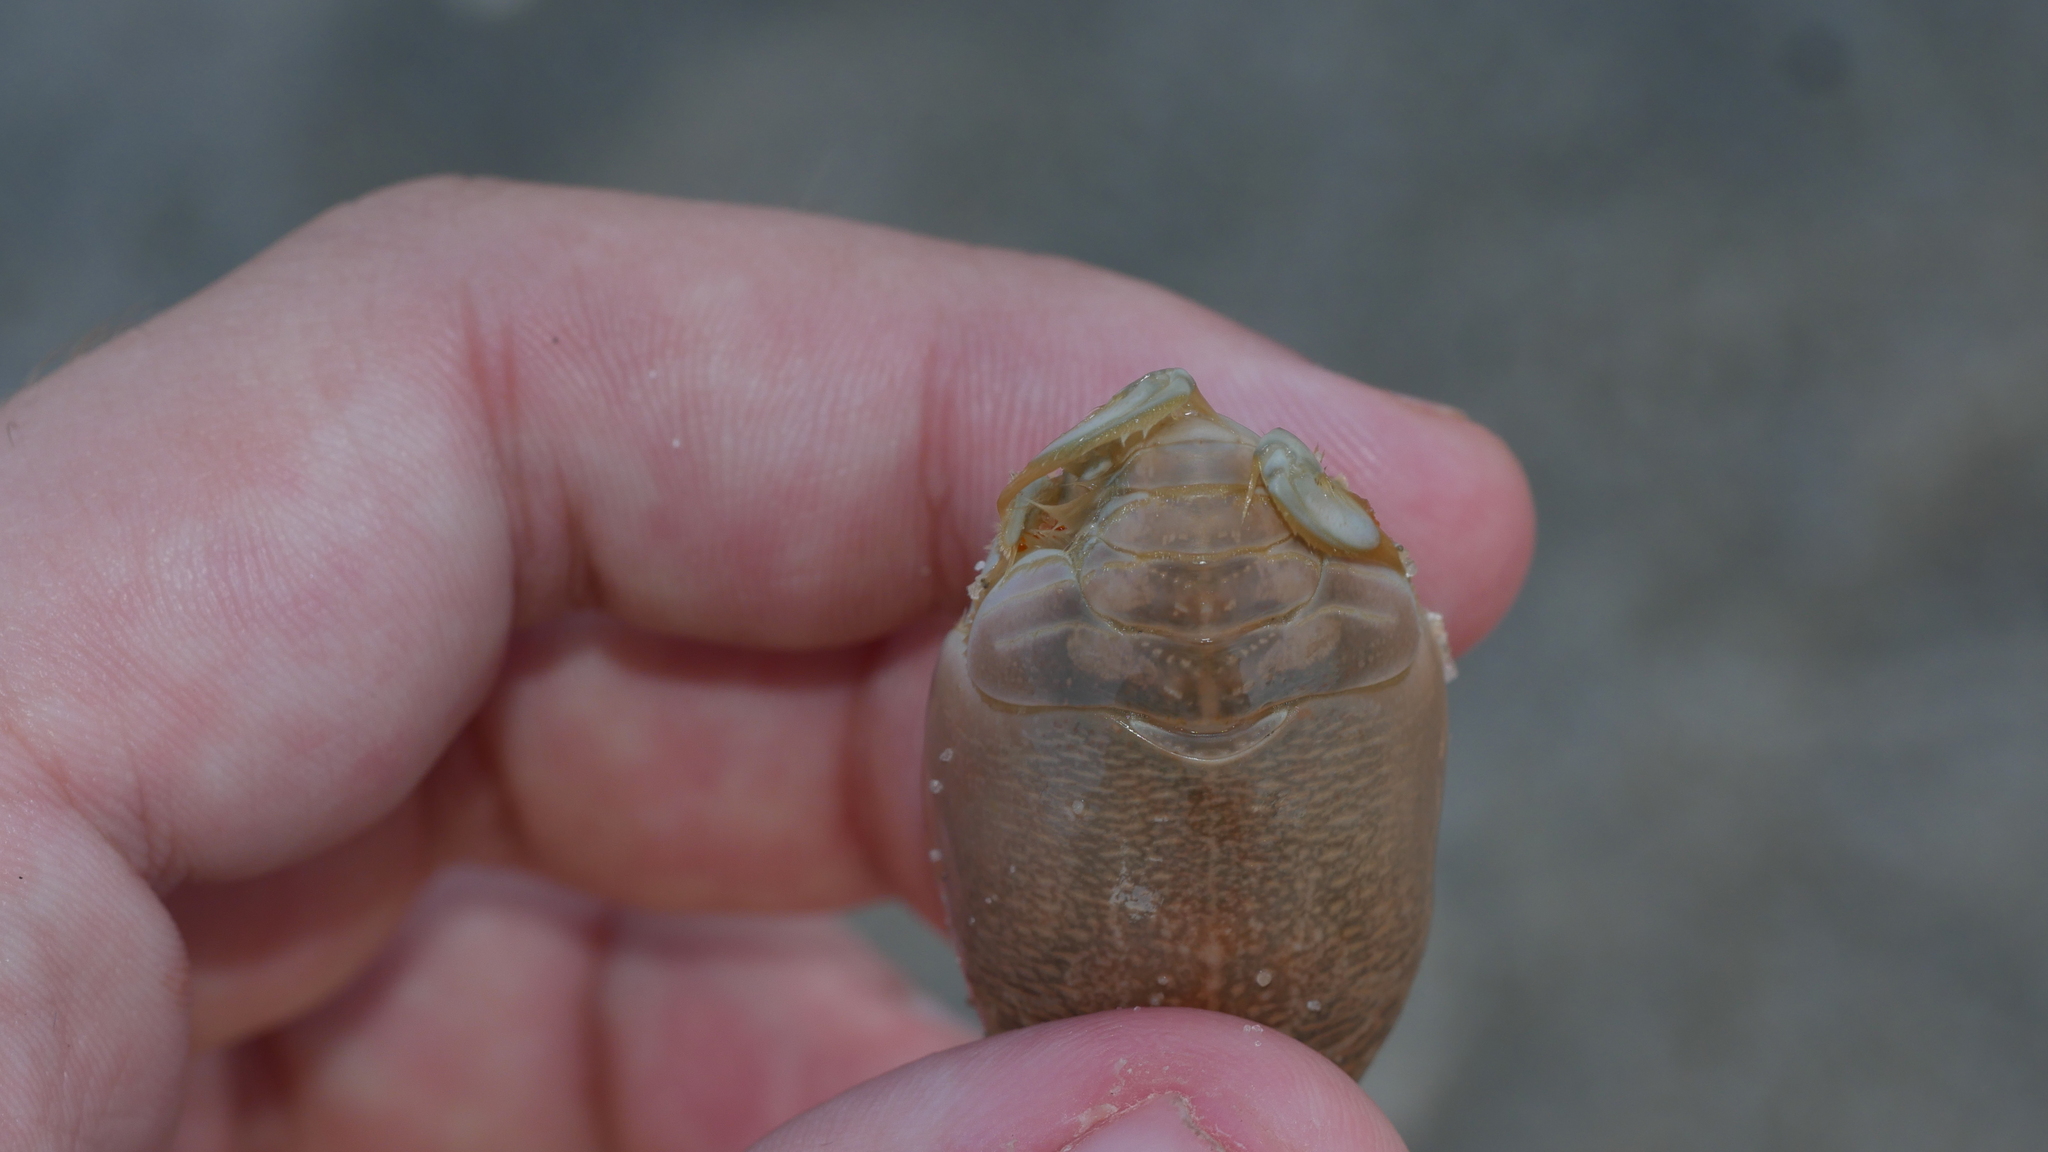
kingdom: Animalia
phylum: Arthropoda
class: Malacostraca
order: Decapoda
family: Hippidae
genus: Emerita
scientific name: Emerita talpoida
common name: Atlantic sand crab
